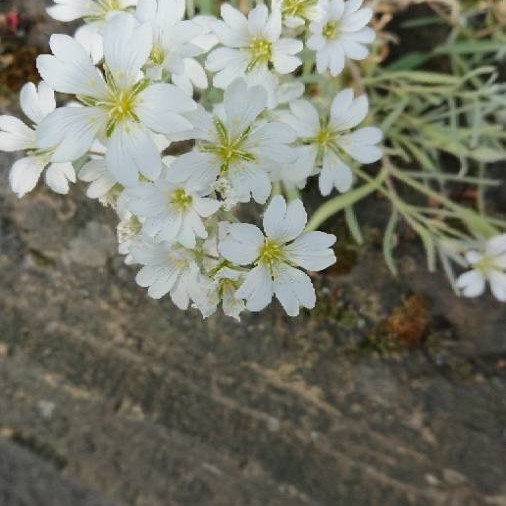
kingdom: Plantae
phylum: Tracheophyta
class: Magnoliopsida
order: Caryophyllales
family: Caryophyllaceae
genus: Cerastium
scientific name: Cerastium tomentosum
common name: Snow-in-summer
